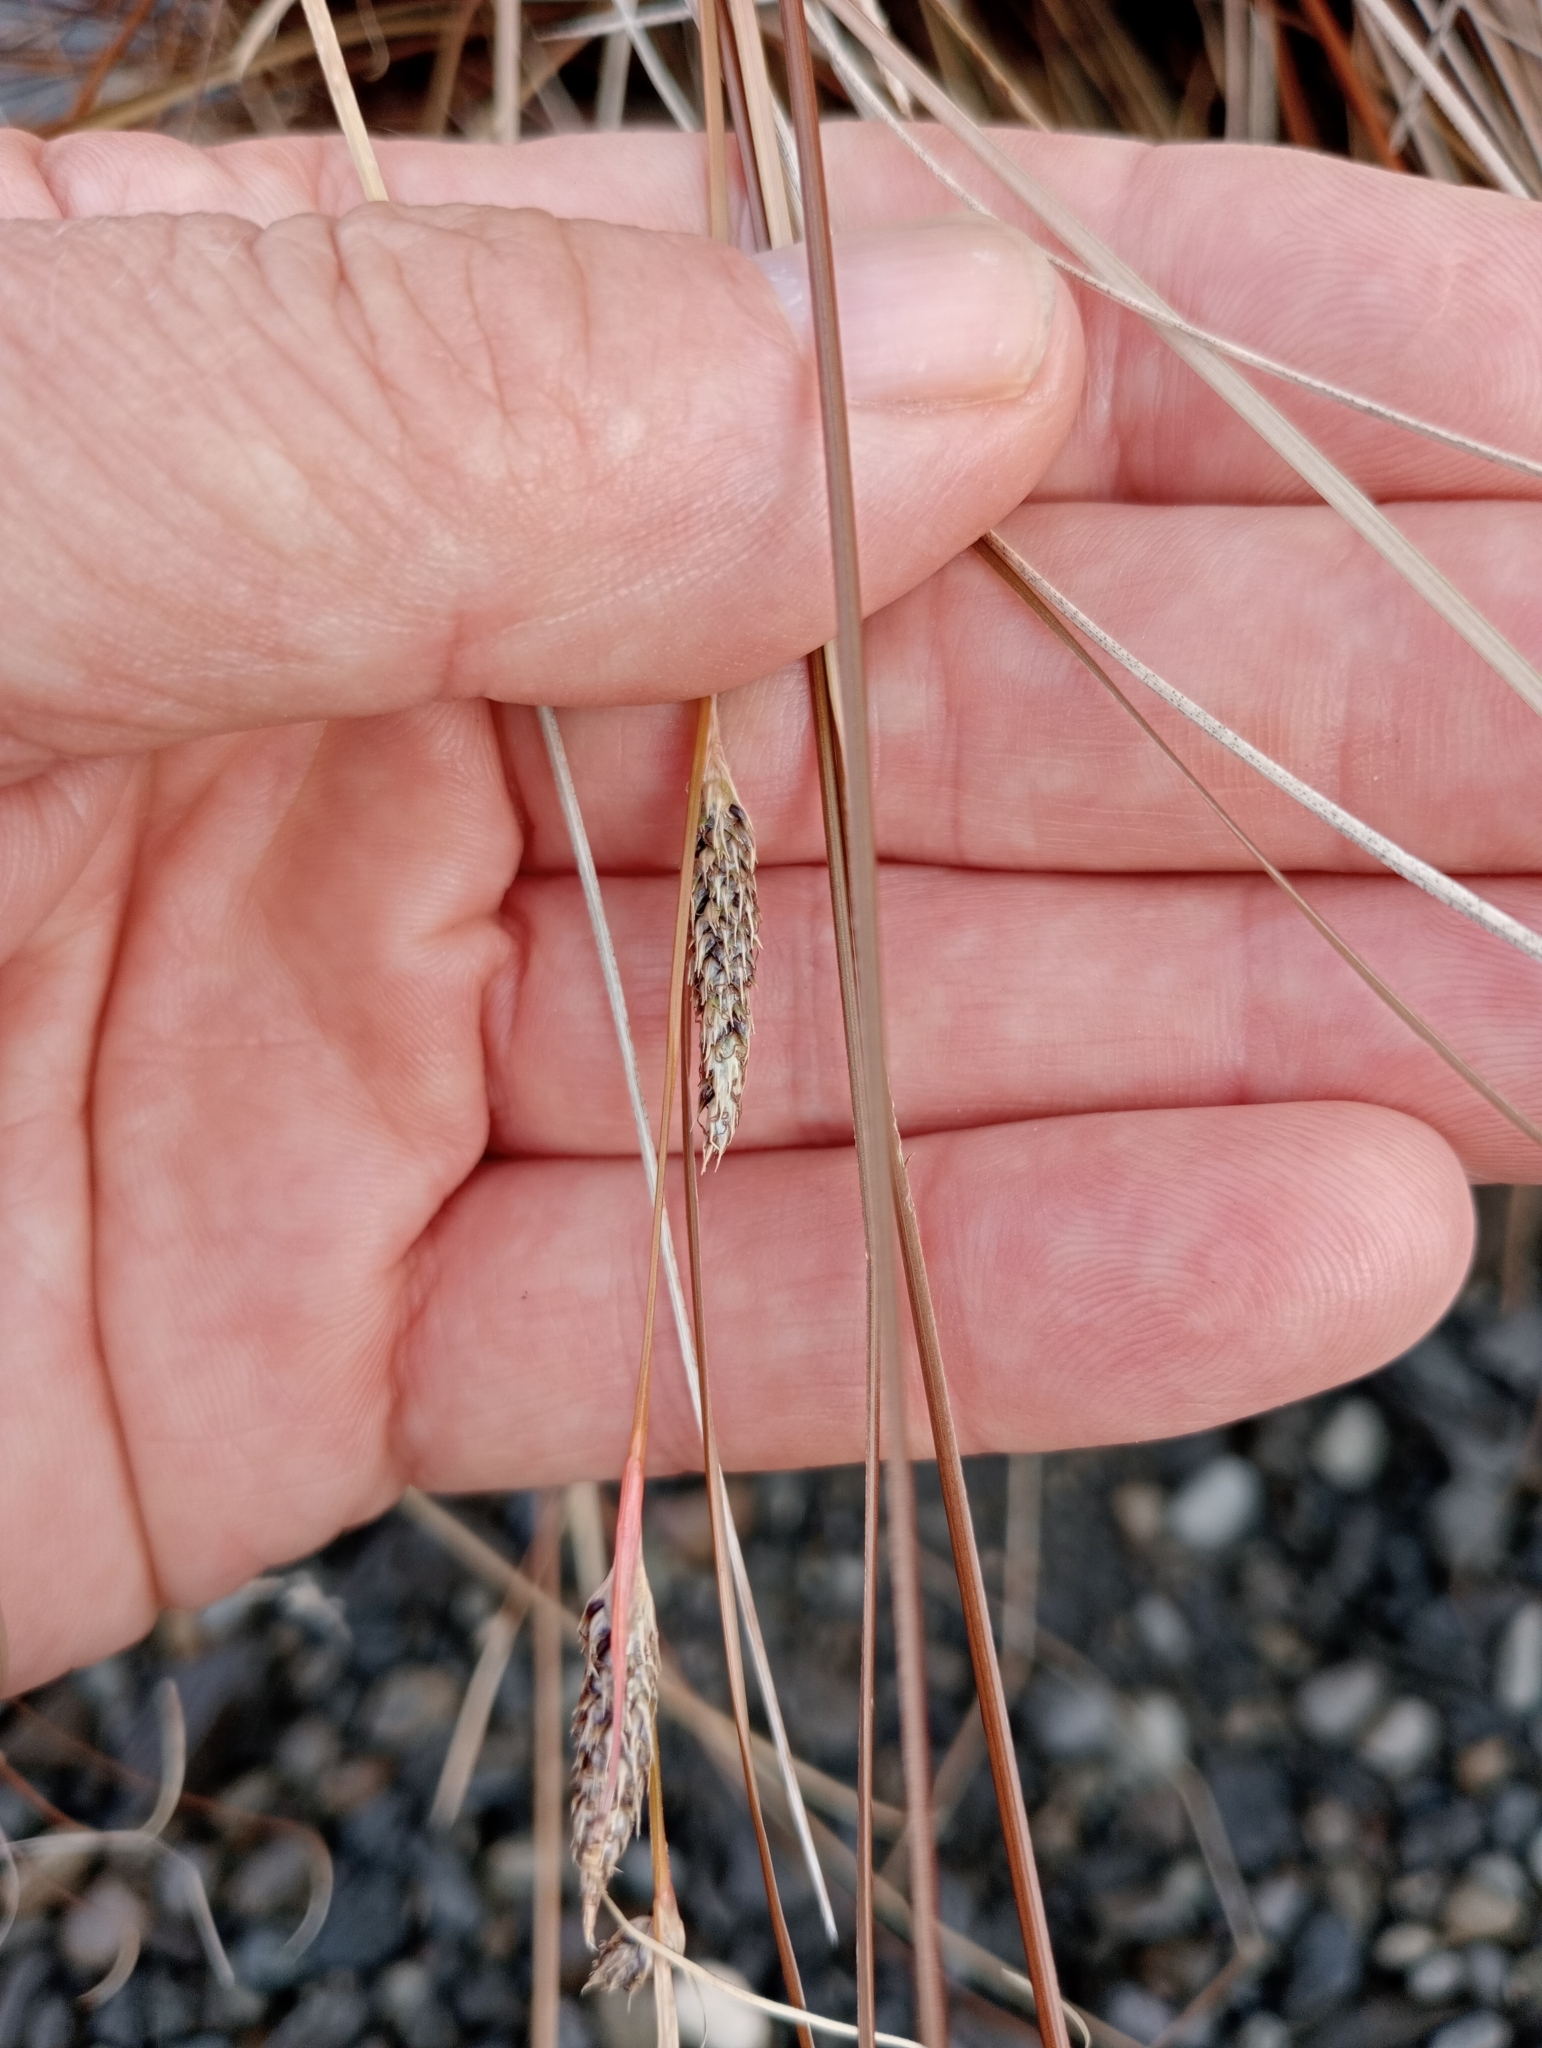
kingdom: Plantae
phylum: Tracheophyta
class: Liliopsida
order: Poales
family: Cyperaceae
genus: Carex
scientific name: Carex buchananii
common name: Leatherleaf sedge
